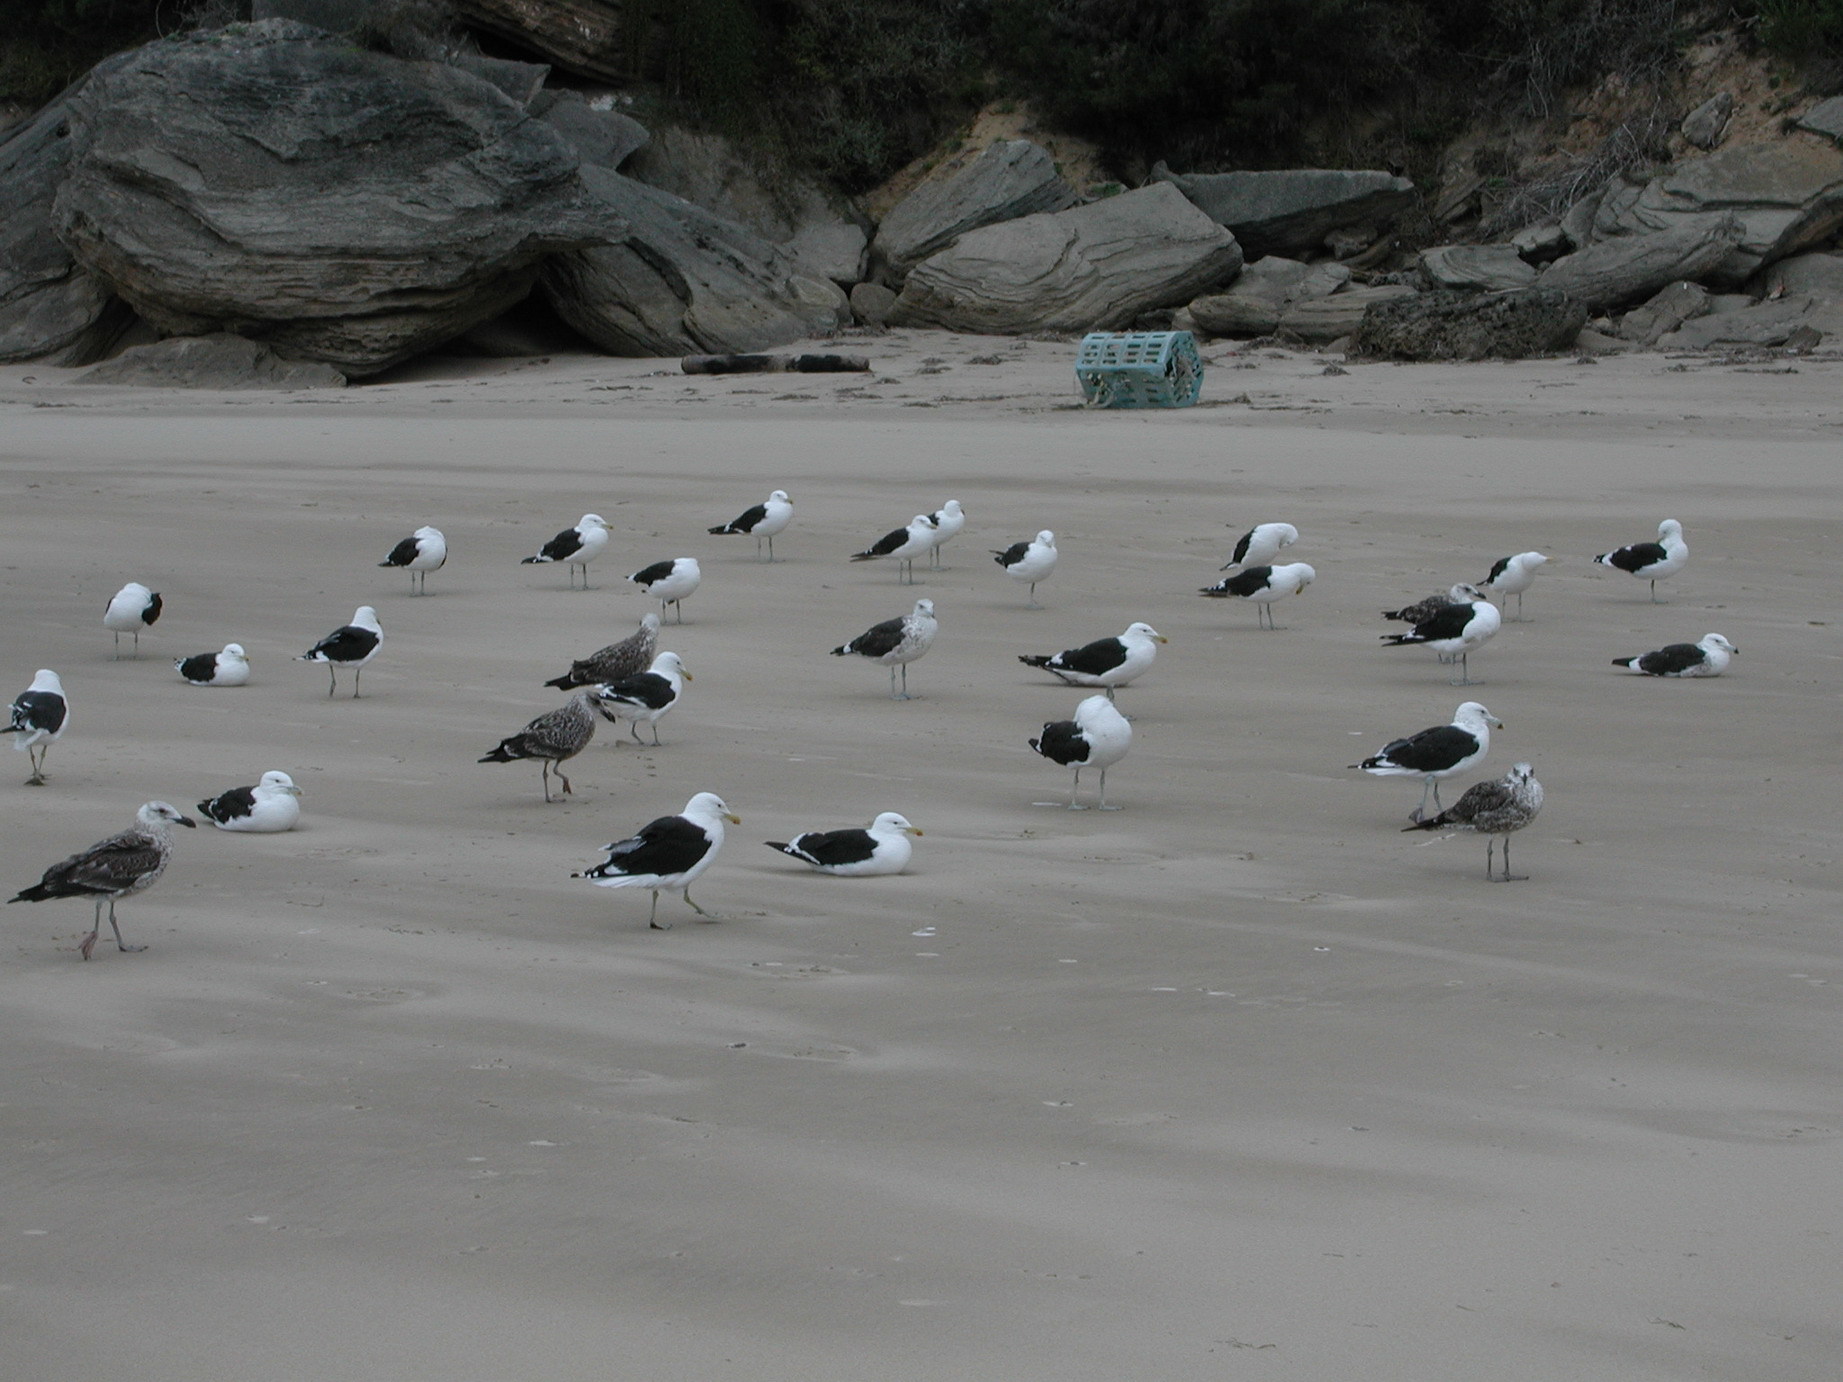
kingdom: Animalia
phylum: Chordata
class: Aves
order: Charadriiformes
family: Laridae
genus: Larus
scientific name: Larus dominicanus
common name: Kelp gull
